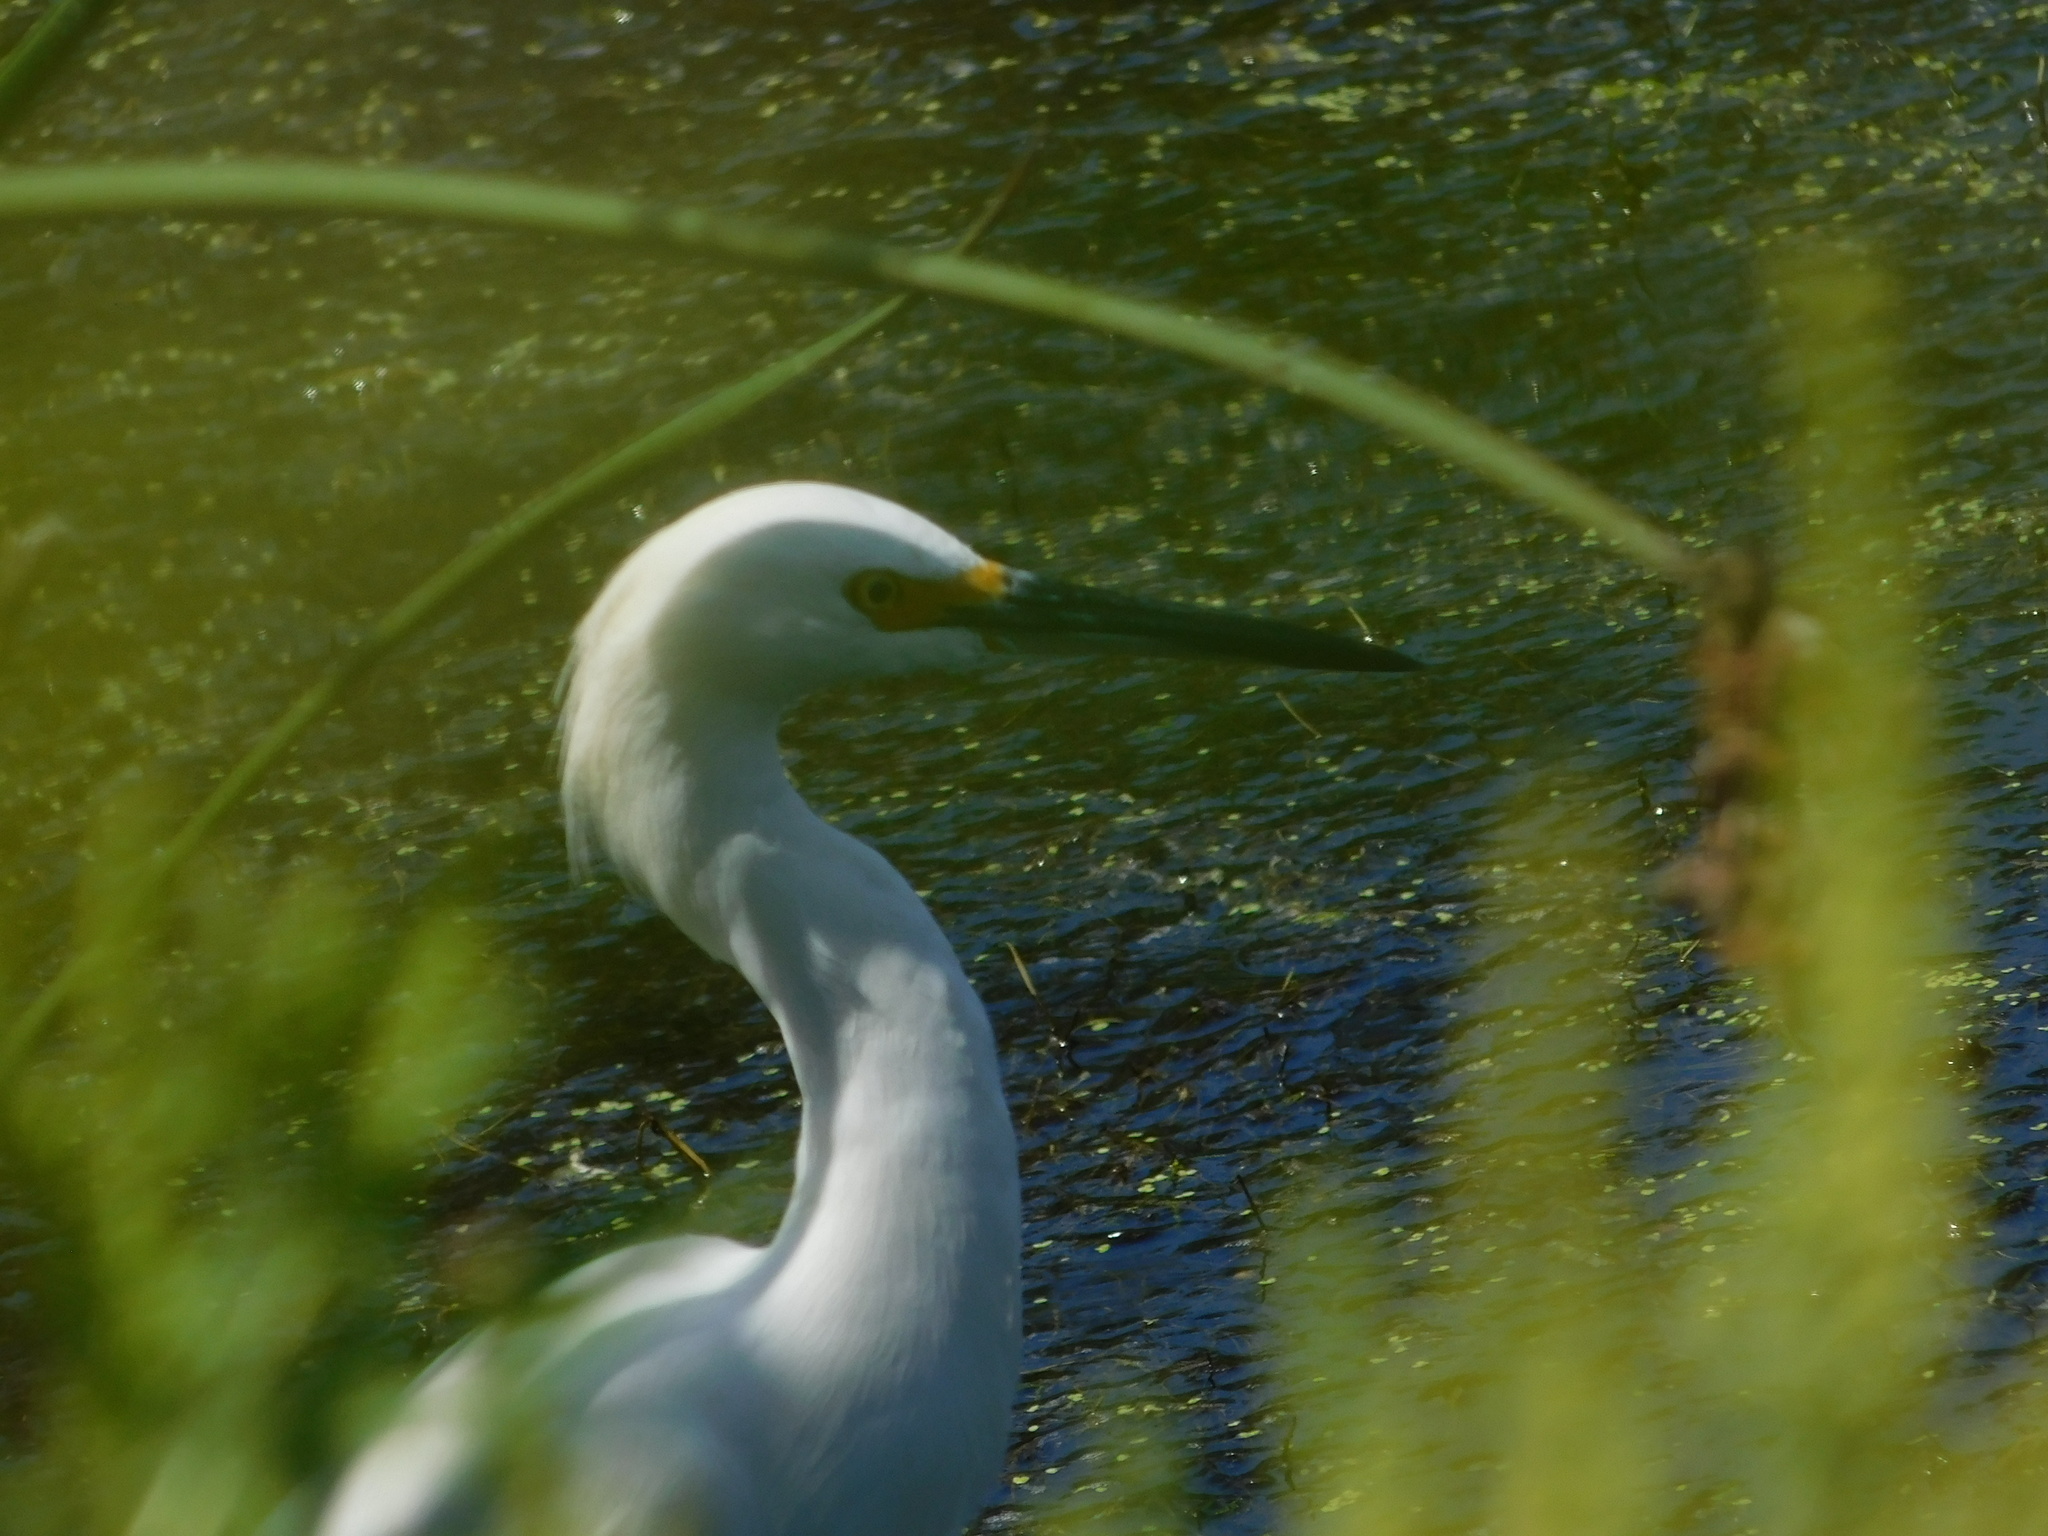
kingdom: Animalia
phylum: Chordata
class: Aves
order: Pelecaniformes
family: Ardeidae
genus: Egretta
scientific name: Egretta thula
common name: Snowy egret
